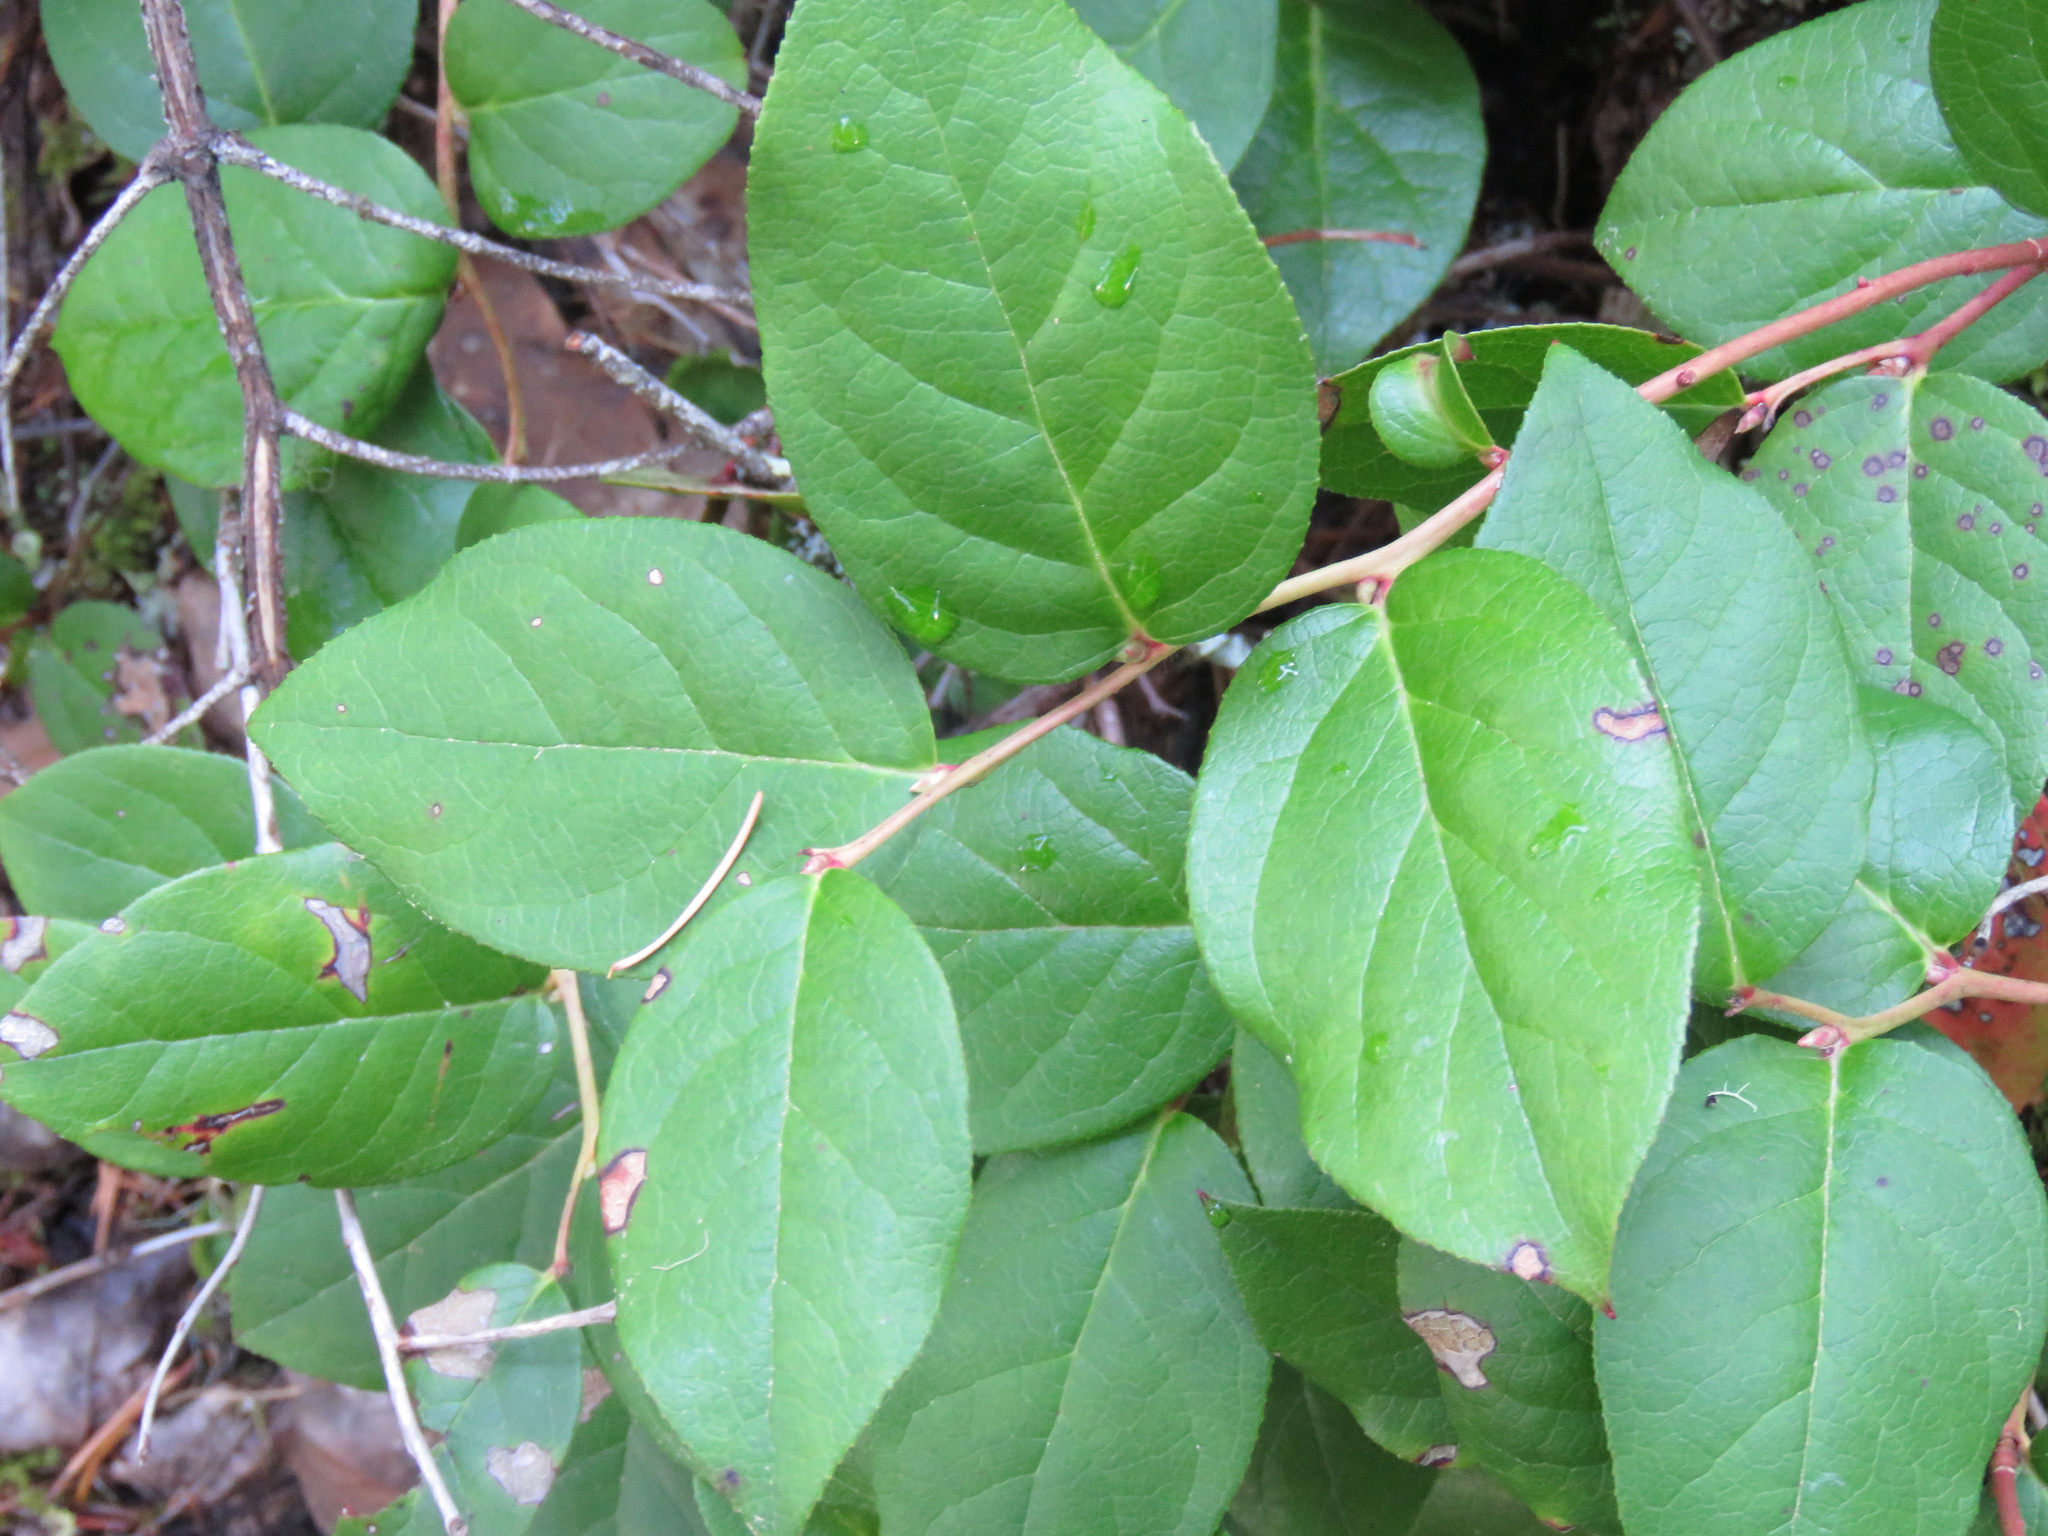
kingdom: Plantae
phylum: Tracheophyta
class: Magnoliopsida
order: Ericales
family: Ericaceae
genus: Gaultheria
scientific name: Gaultheria shallon
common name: Shallon
